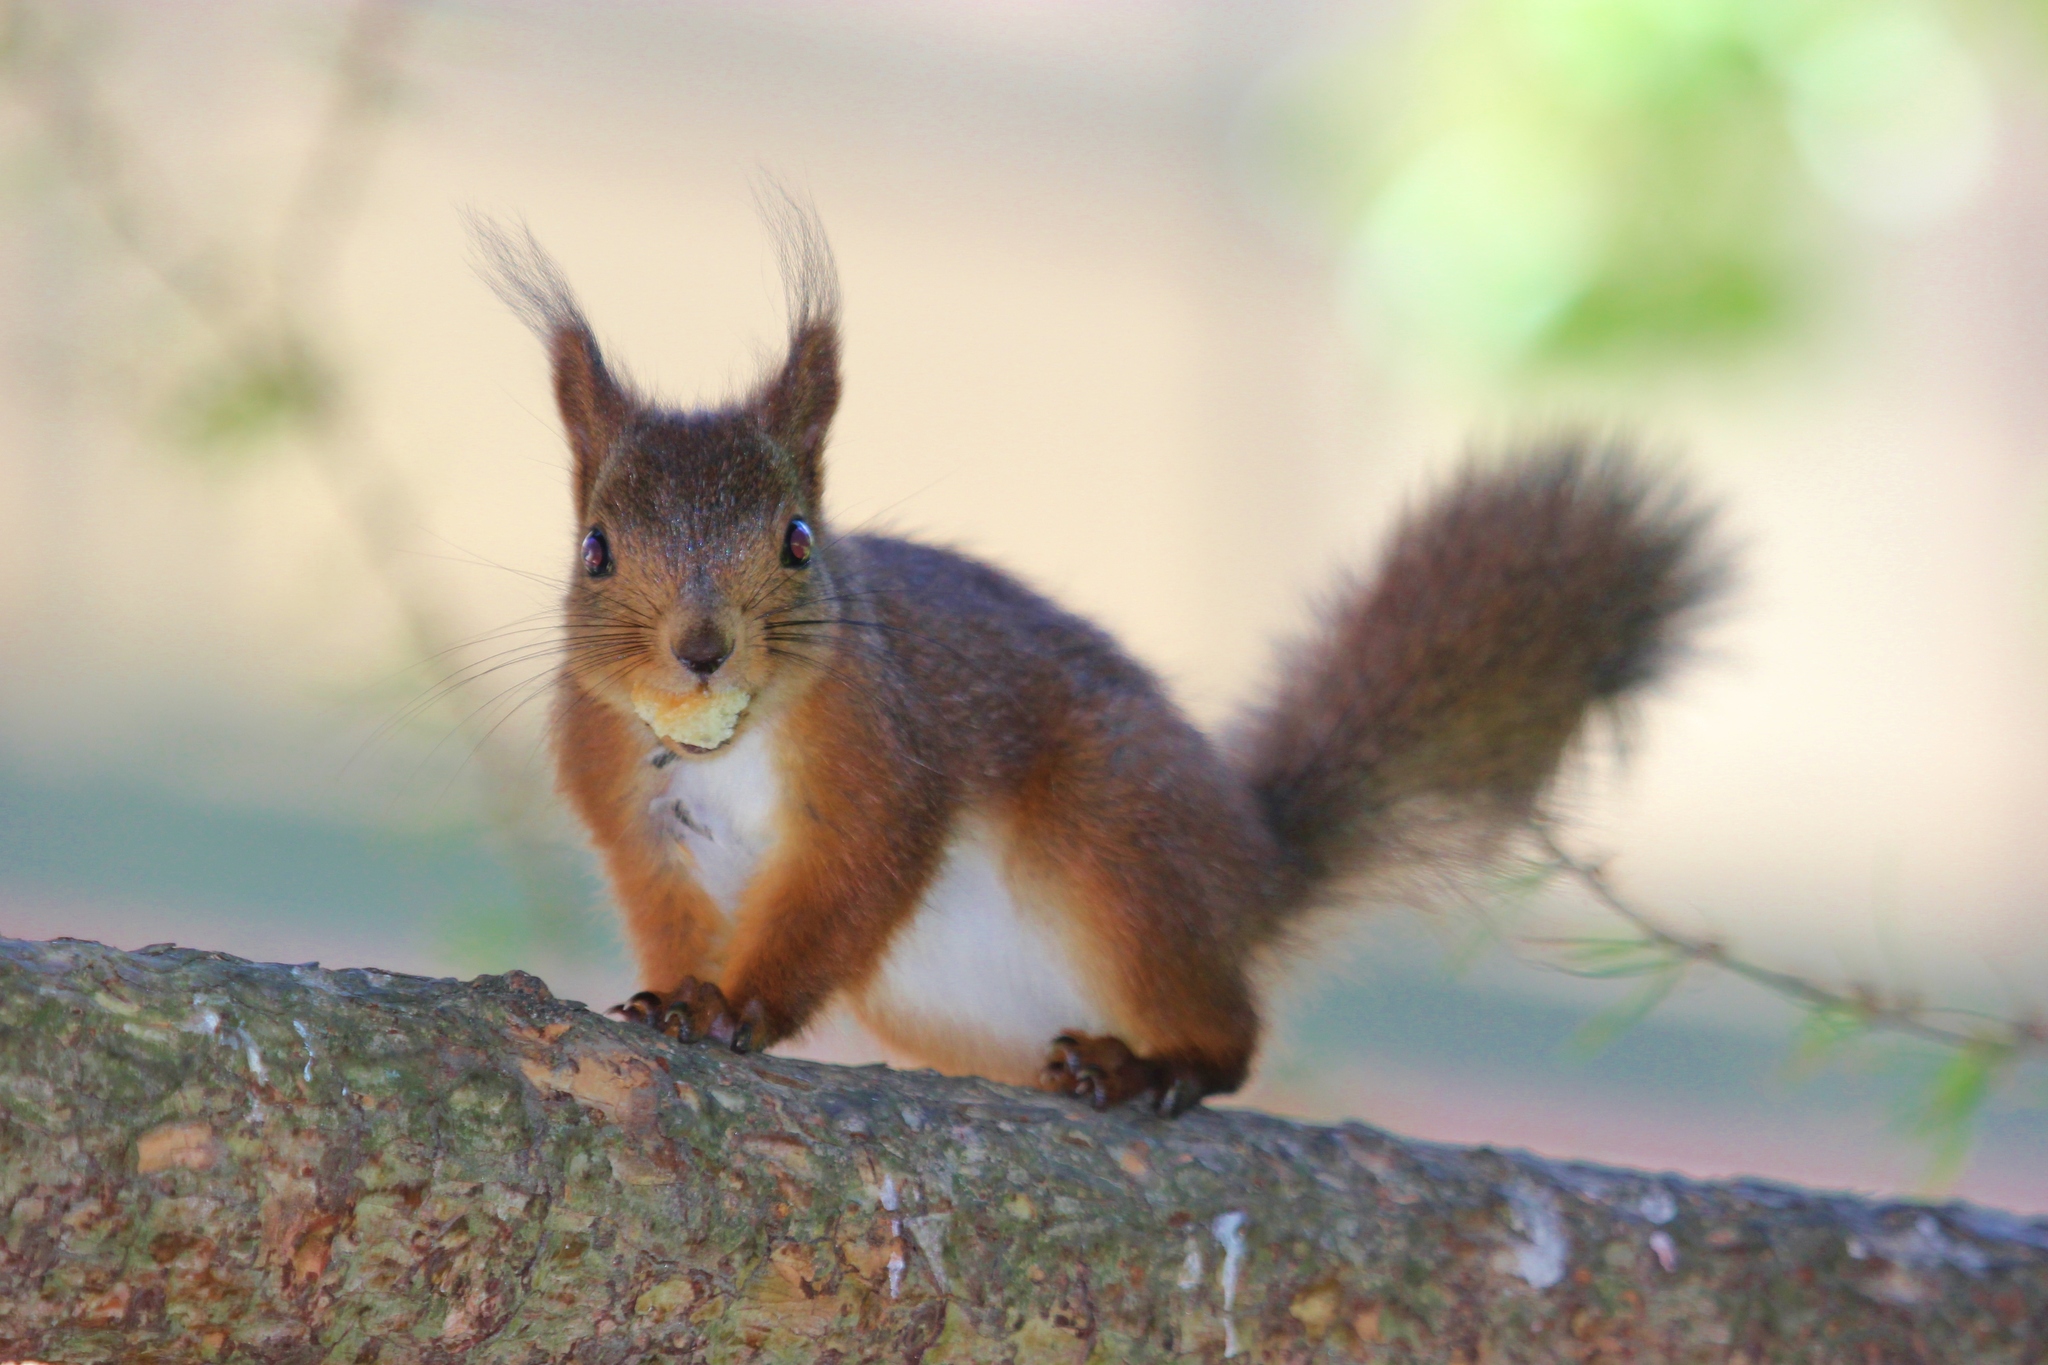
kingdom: Animalia
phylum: Chordata
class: Mammalia
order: Rodentia
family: Sciuridae
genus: Sciurus
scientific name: Sciurus vulgaris
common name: Eurasian red squirrel
